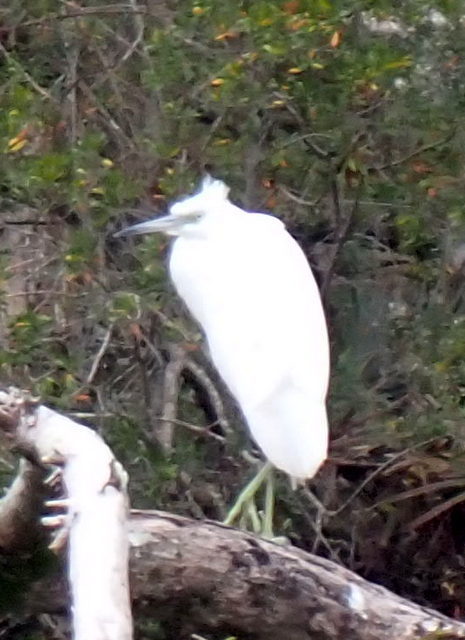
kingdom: Animalia
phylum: Chordata
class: Aves
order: Pelecaniformes
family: Ardeidae
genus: Egretta
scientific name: Egretta caerulea
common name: Little blue heron
